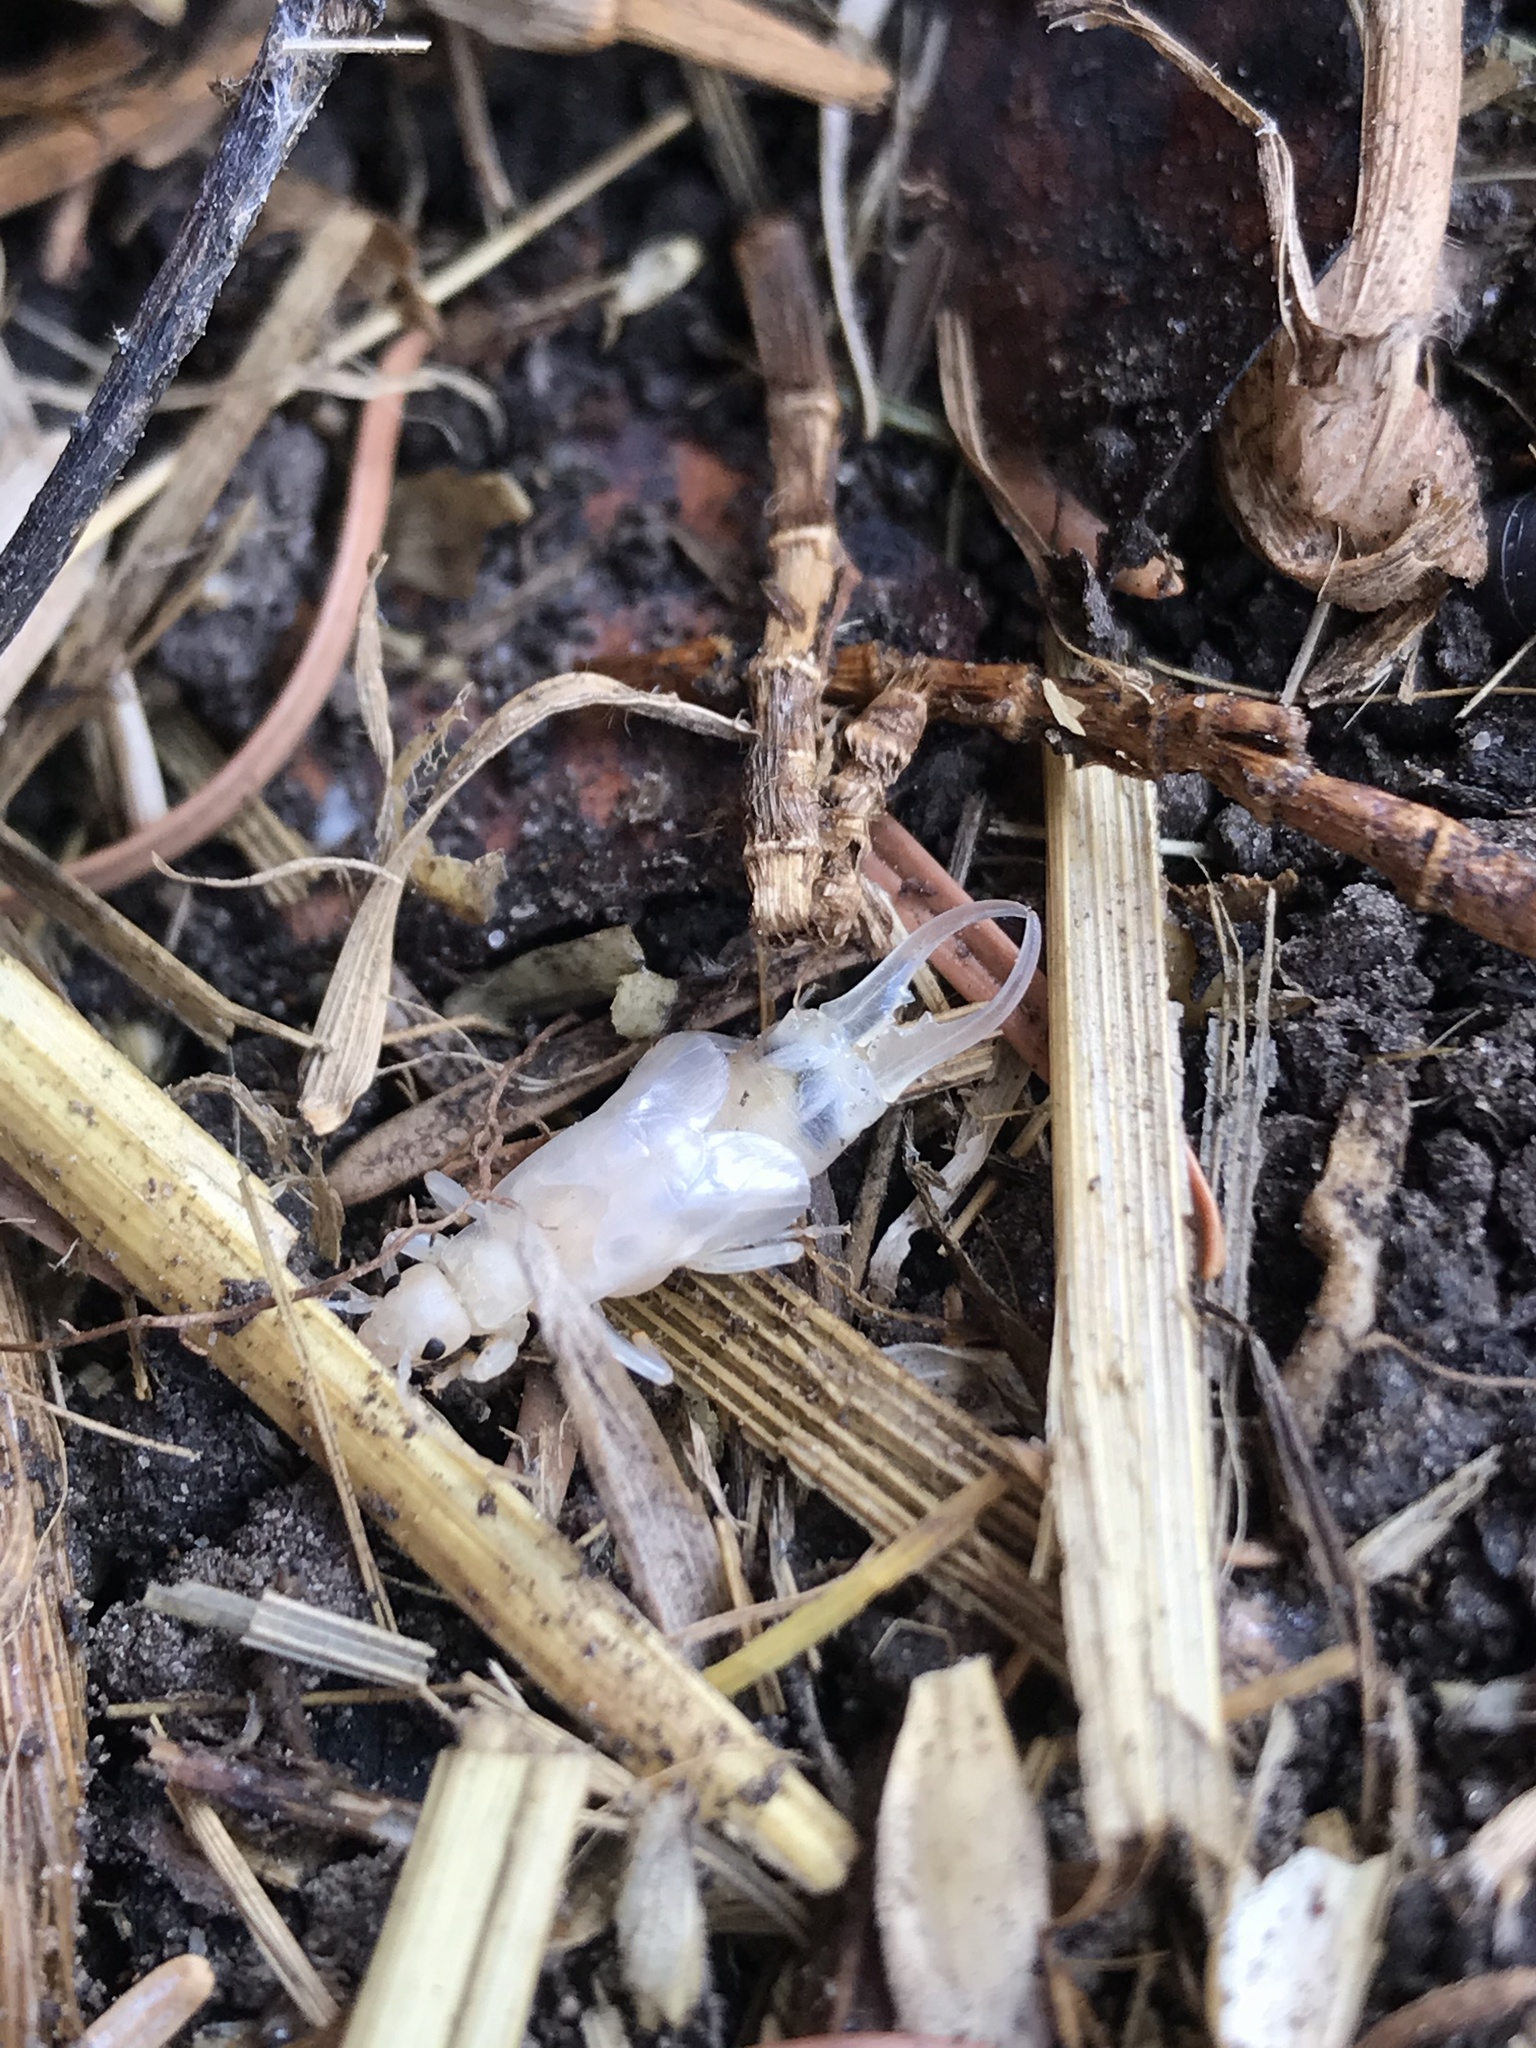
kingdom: Animalia
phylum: Arthropoda
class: Insecta
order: Dermaptera
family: Forficulidae
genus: Forficula
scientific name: Forficula
